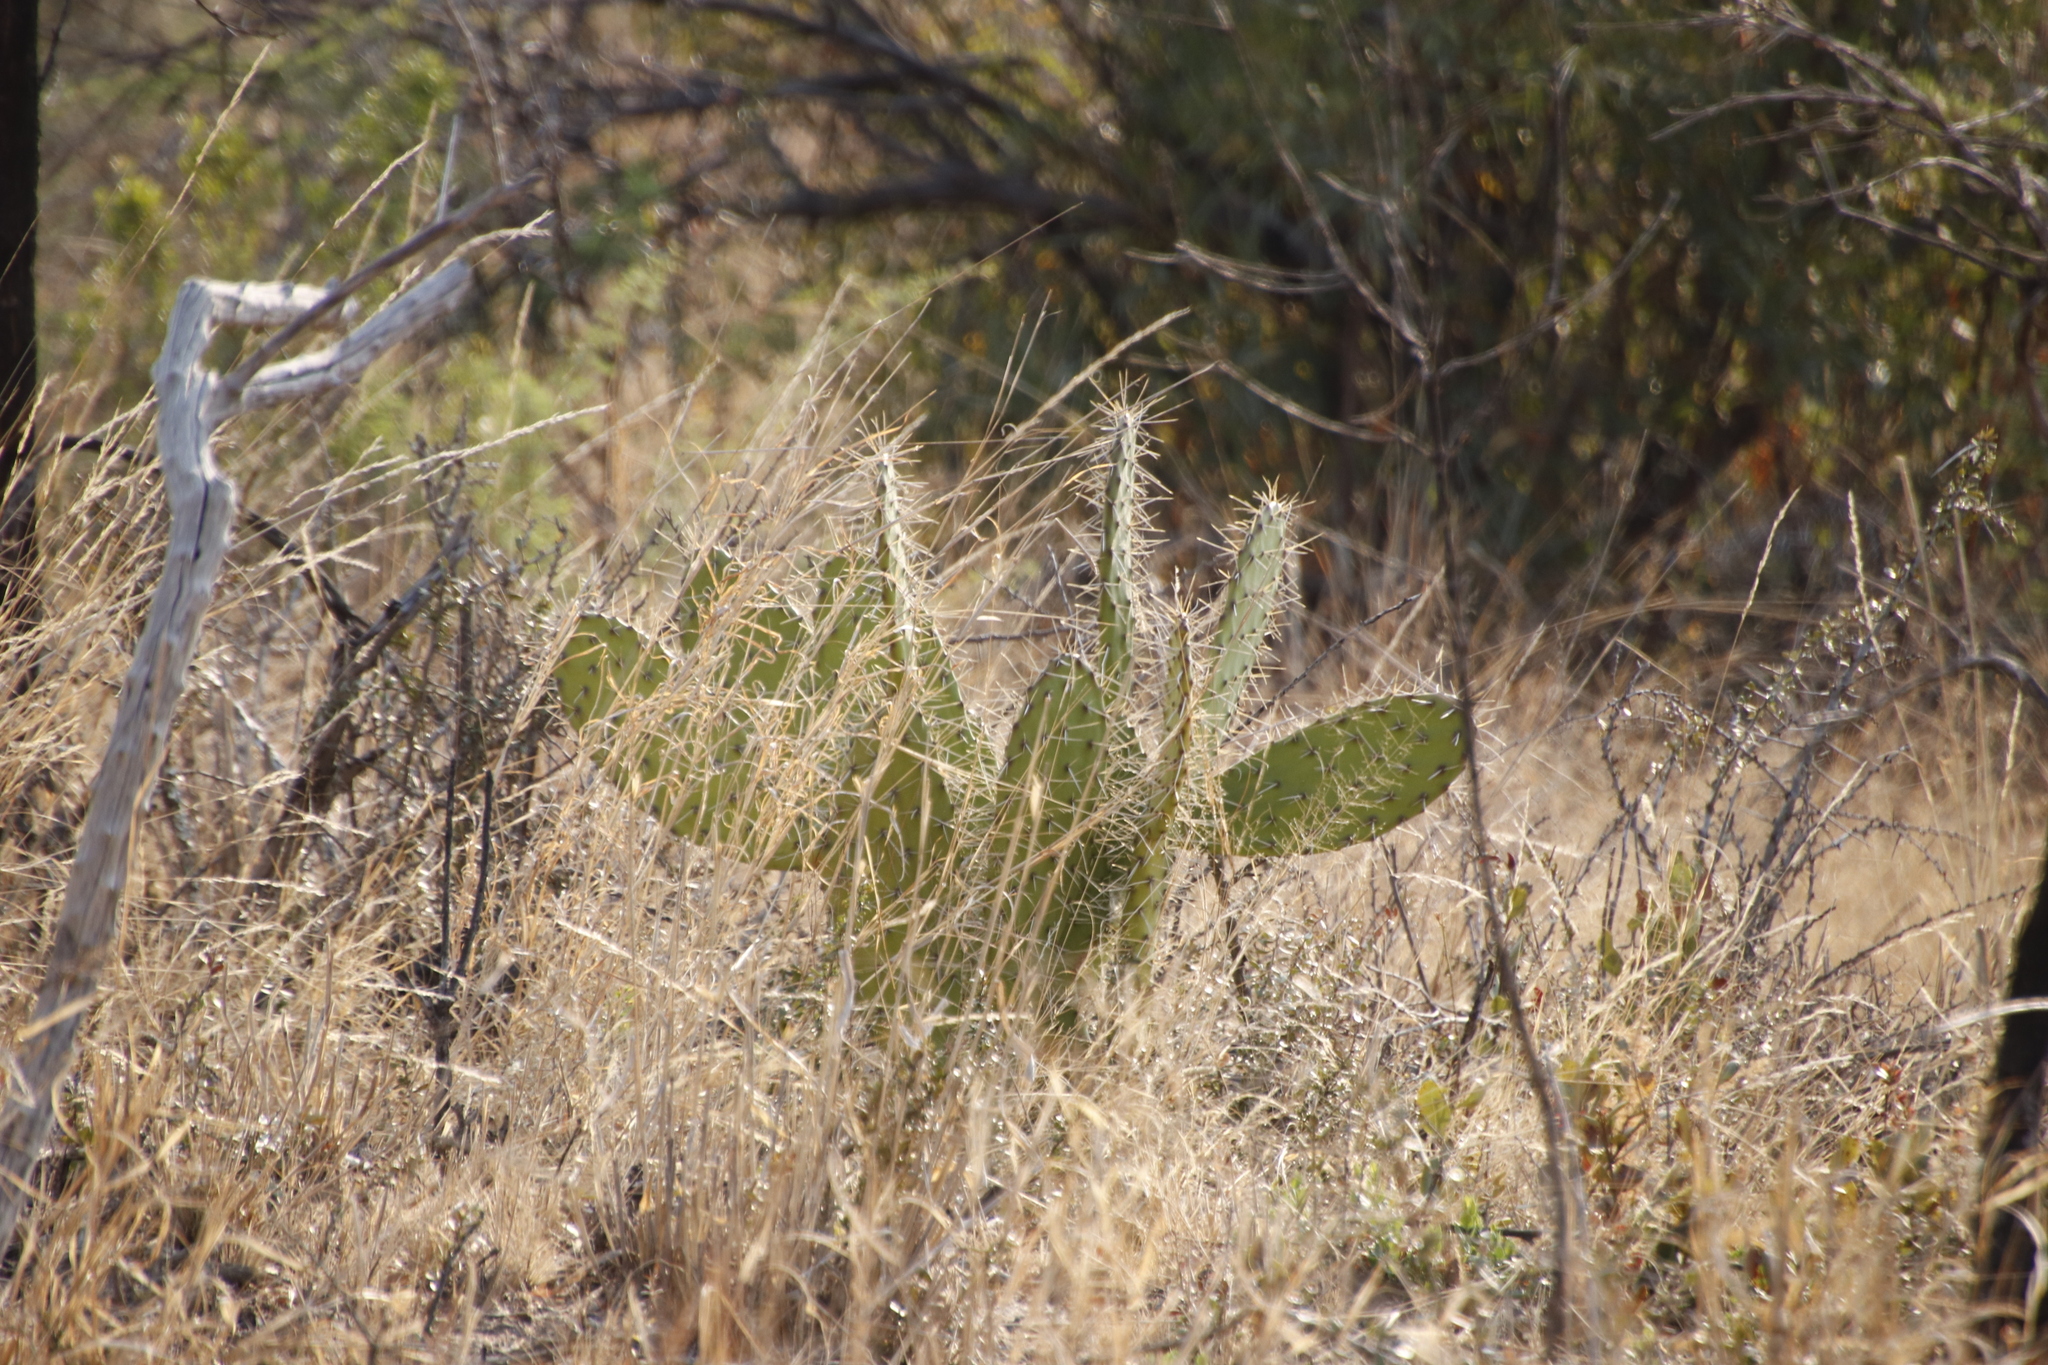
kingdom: Plantae
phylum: Tracheophyta
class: Magnoliopsida
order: Caryophyllales
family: Cactaceae
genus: Opuntia
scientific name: Opuntia ficus-indica
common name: Barbary fig
